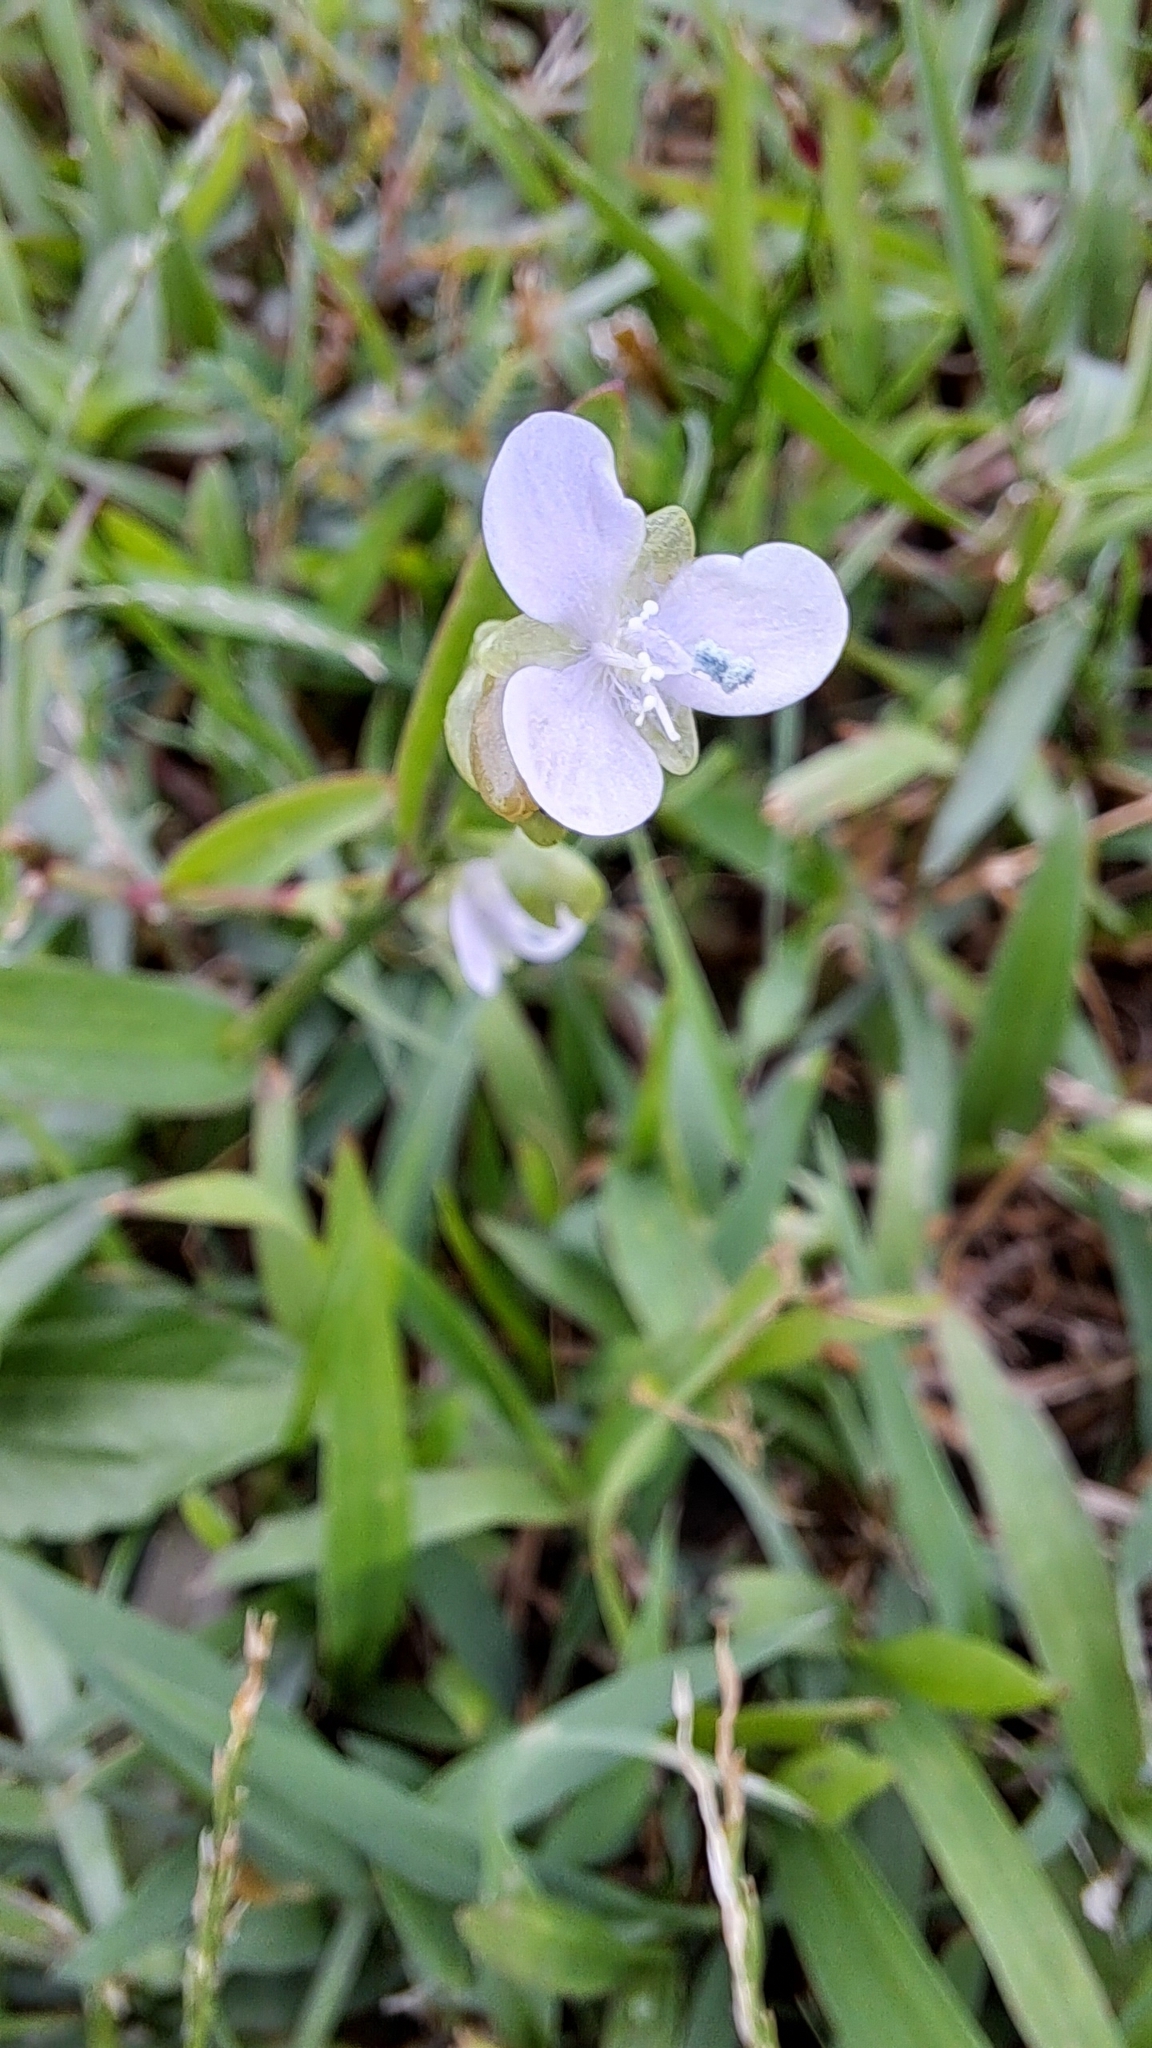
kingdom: Plantae
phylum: Tracheophyta
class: Liliopsida
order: Commelinales
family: Commelinaceae
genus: Murdannia
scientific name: Murdannia loriformis
